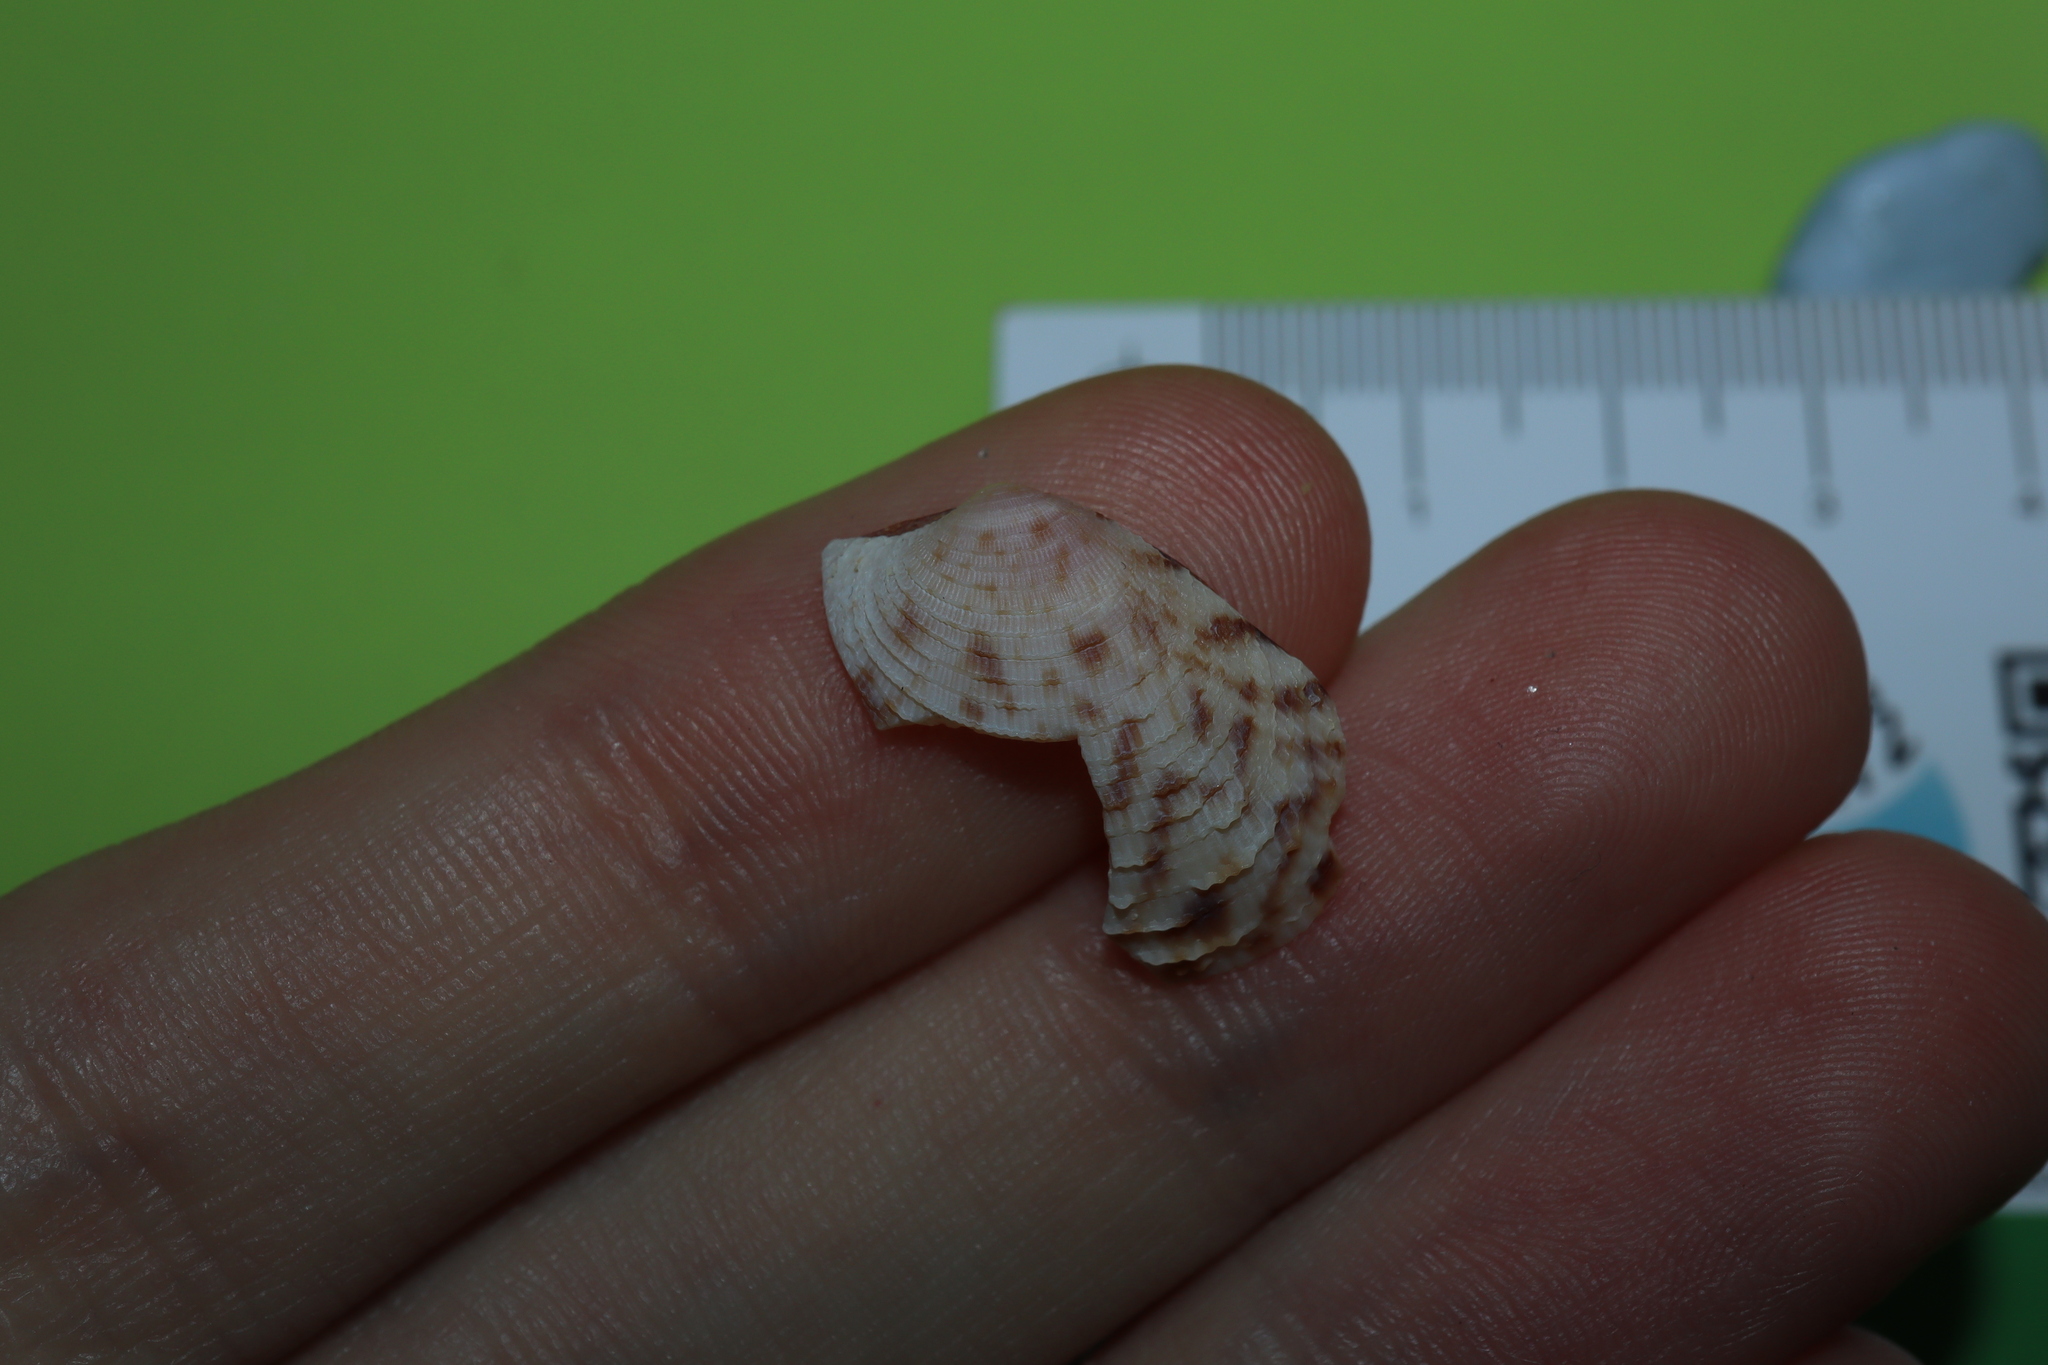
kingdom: Animalia
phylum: Mollusca
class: Bivalvia
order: Venerida
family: Veneridae
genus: Antigona
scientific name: Antigona persimilis
